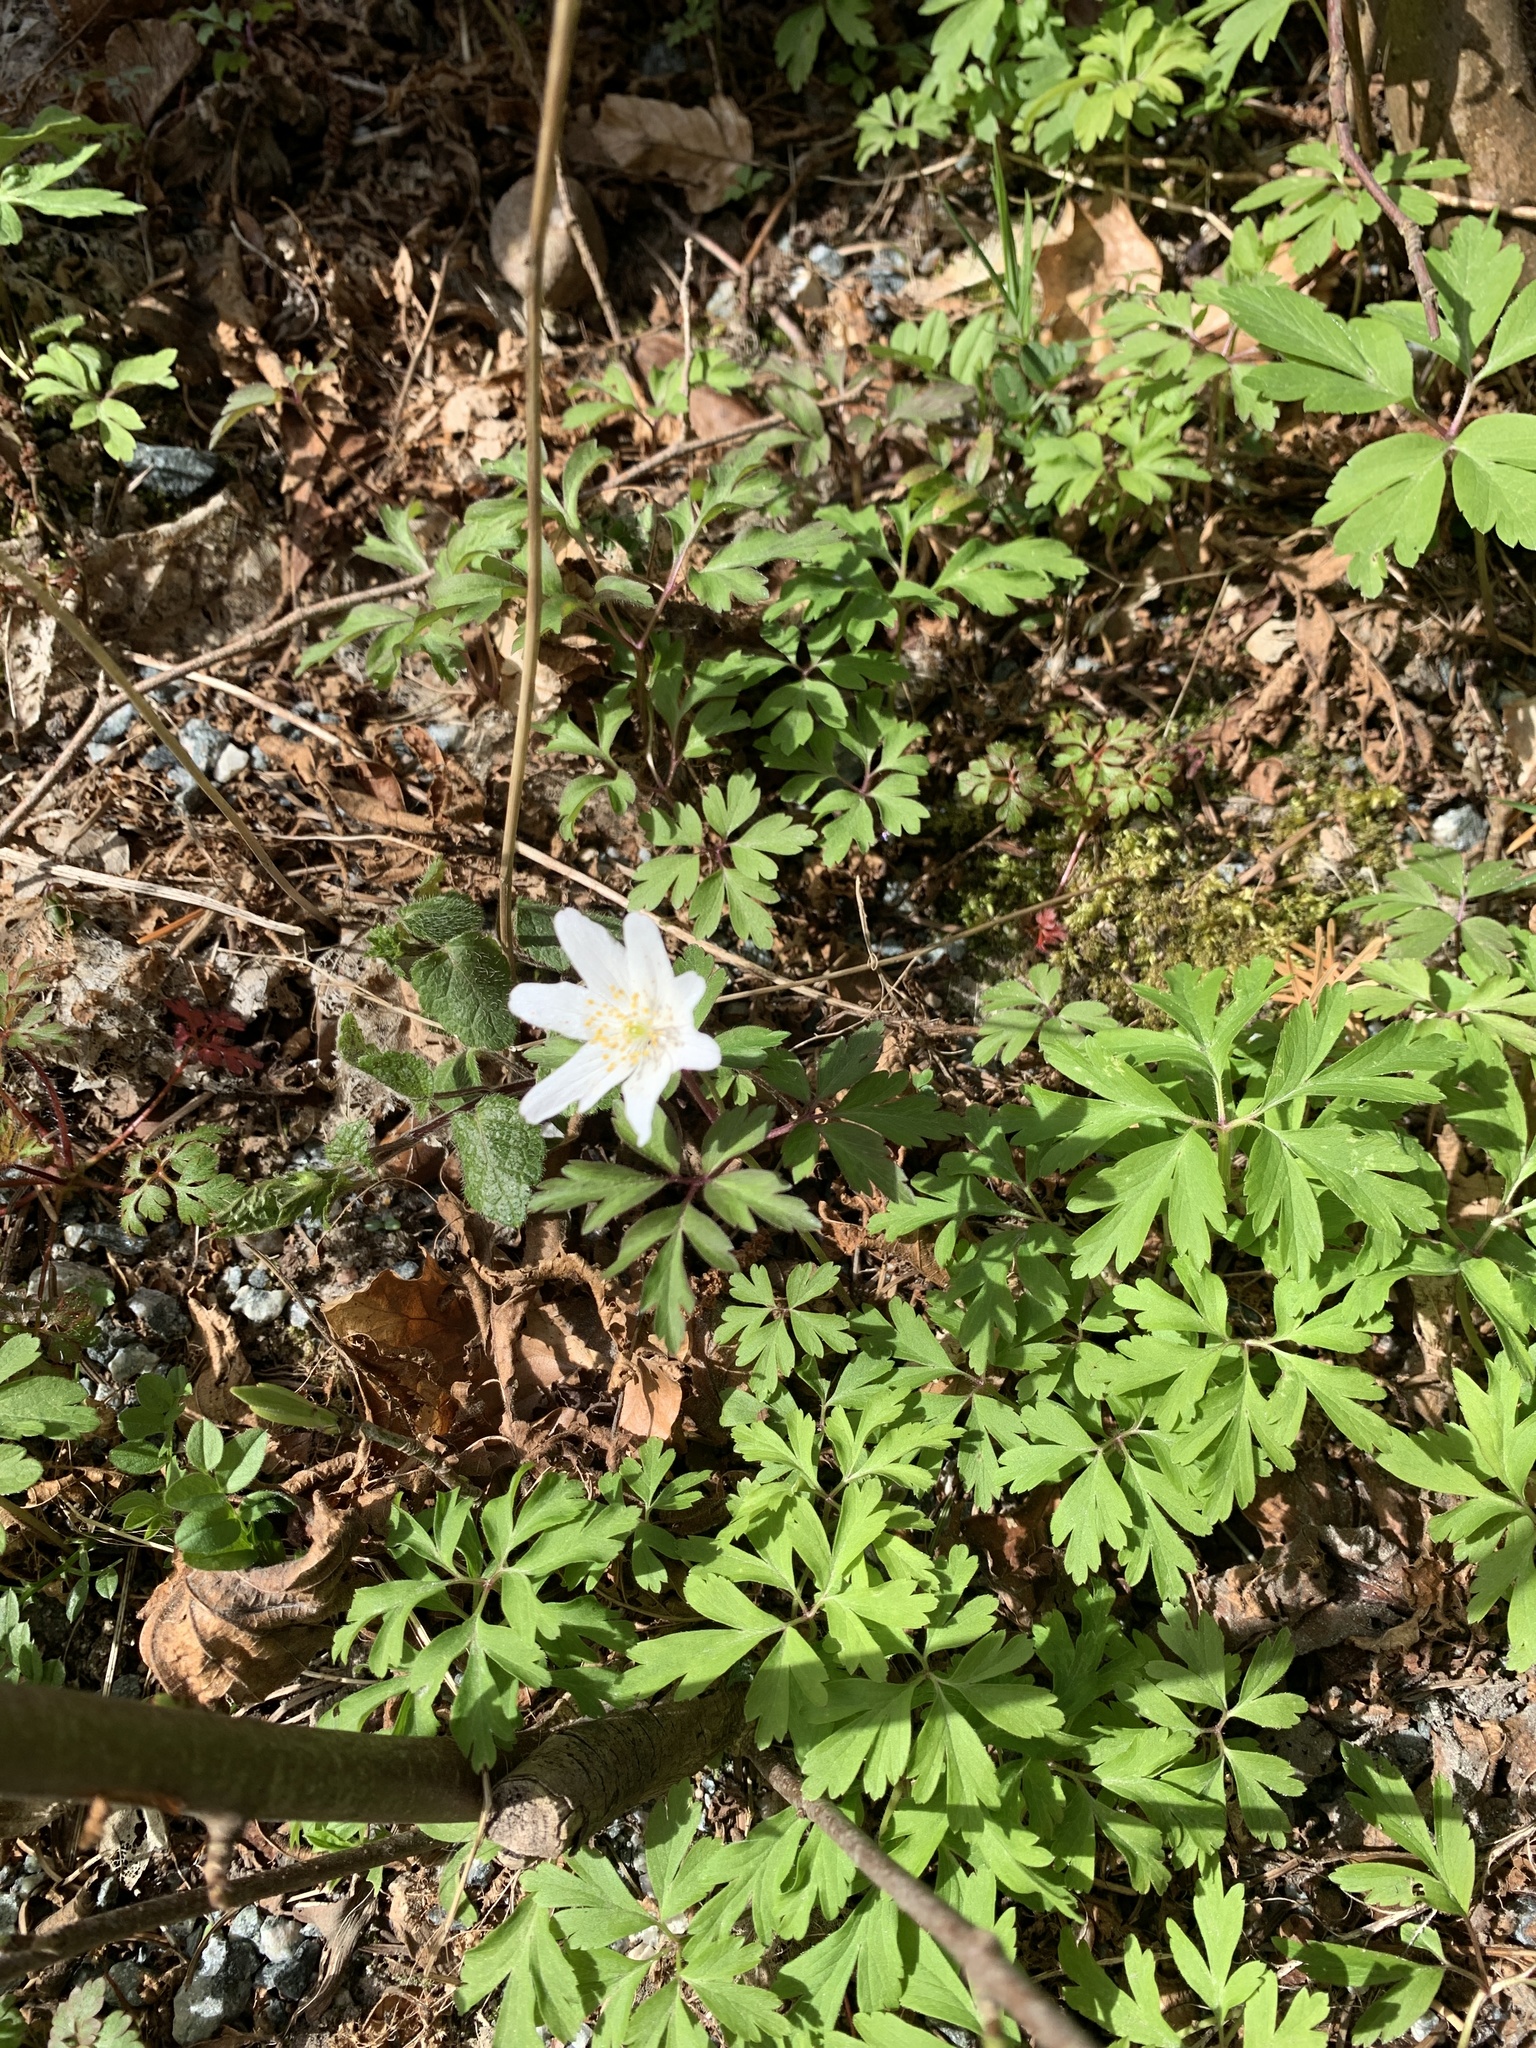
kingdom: Plantae
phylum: Tracheophyta
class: Magnoliopsida
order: Ranunculales
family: Ranunculaceae
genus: Anemone
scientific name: Anemone nemorosa
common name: Wood anemone
